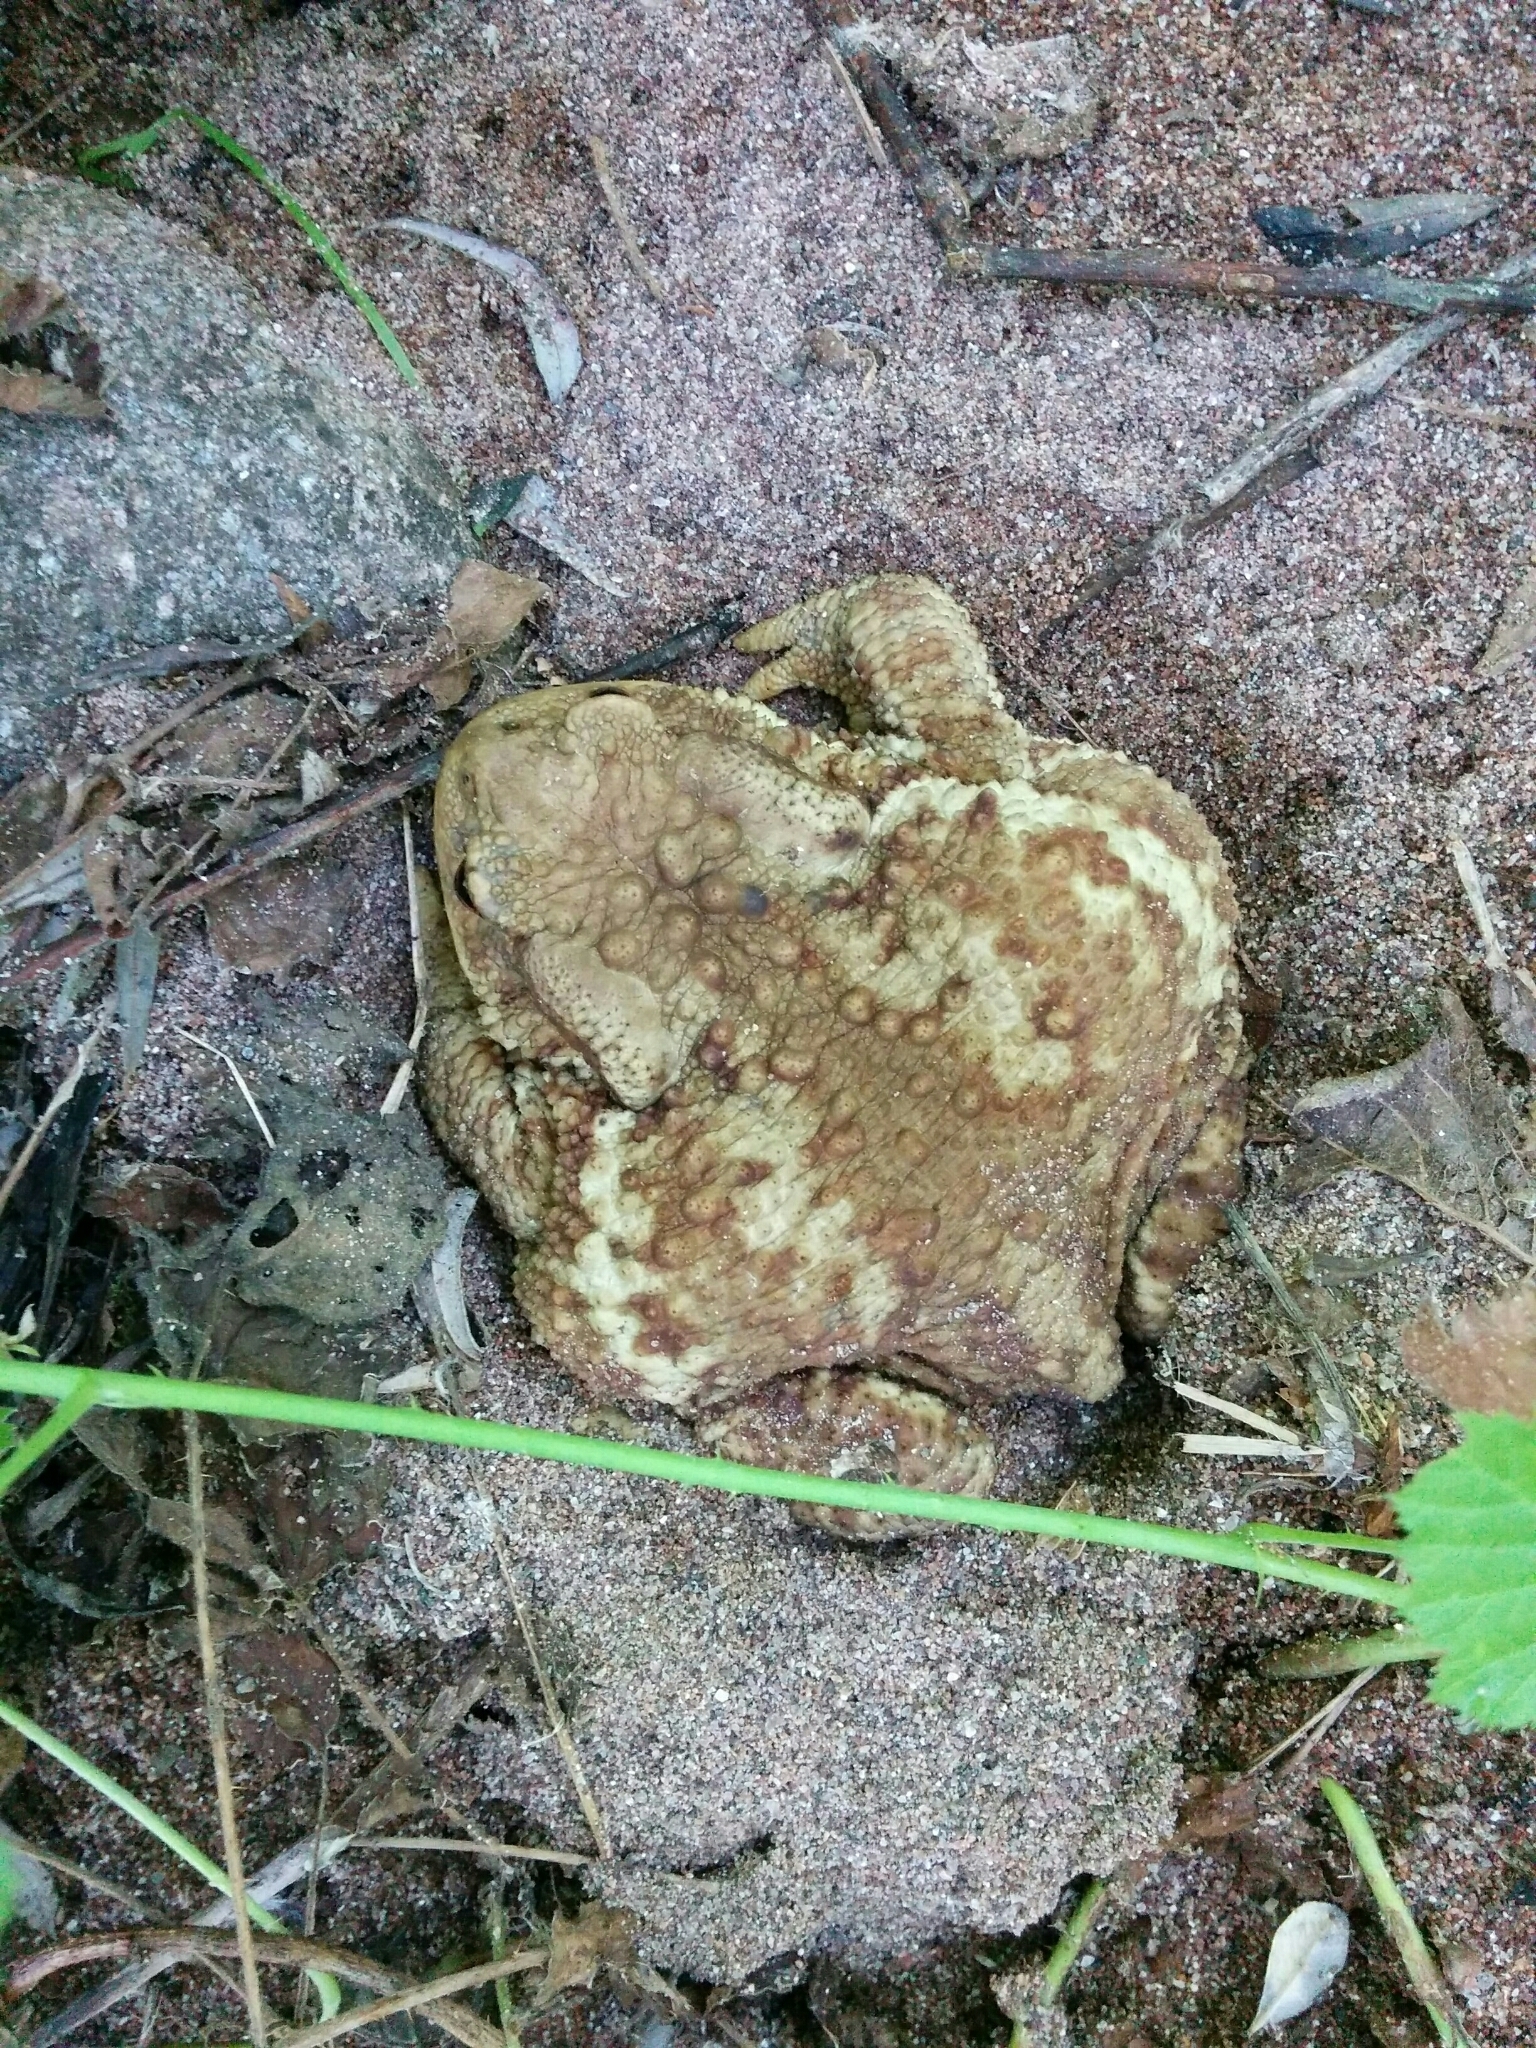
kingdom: Animalia
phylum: Chordata
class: Amphibia
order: Anura
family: Bufonidae
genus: Bufo
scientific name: Bufo bufo
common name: Common toad
